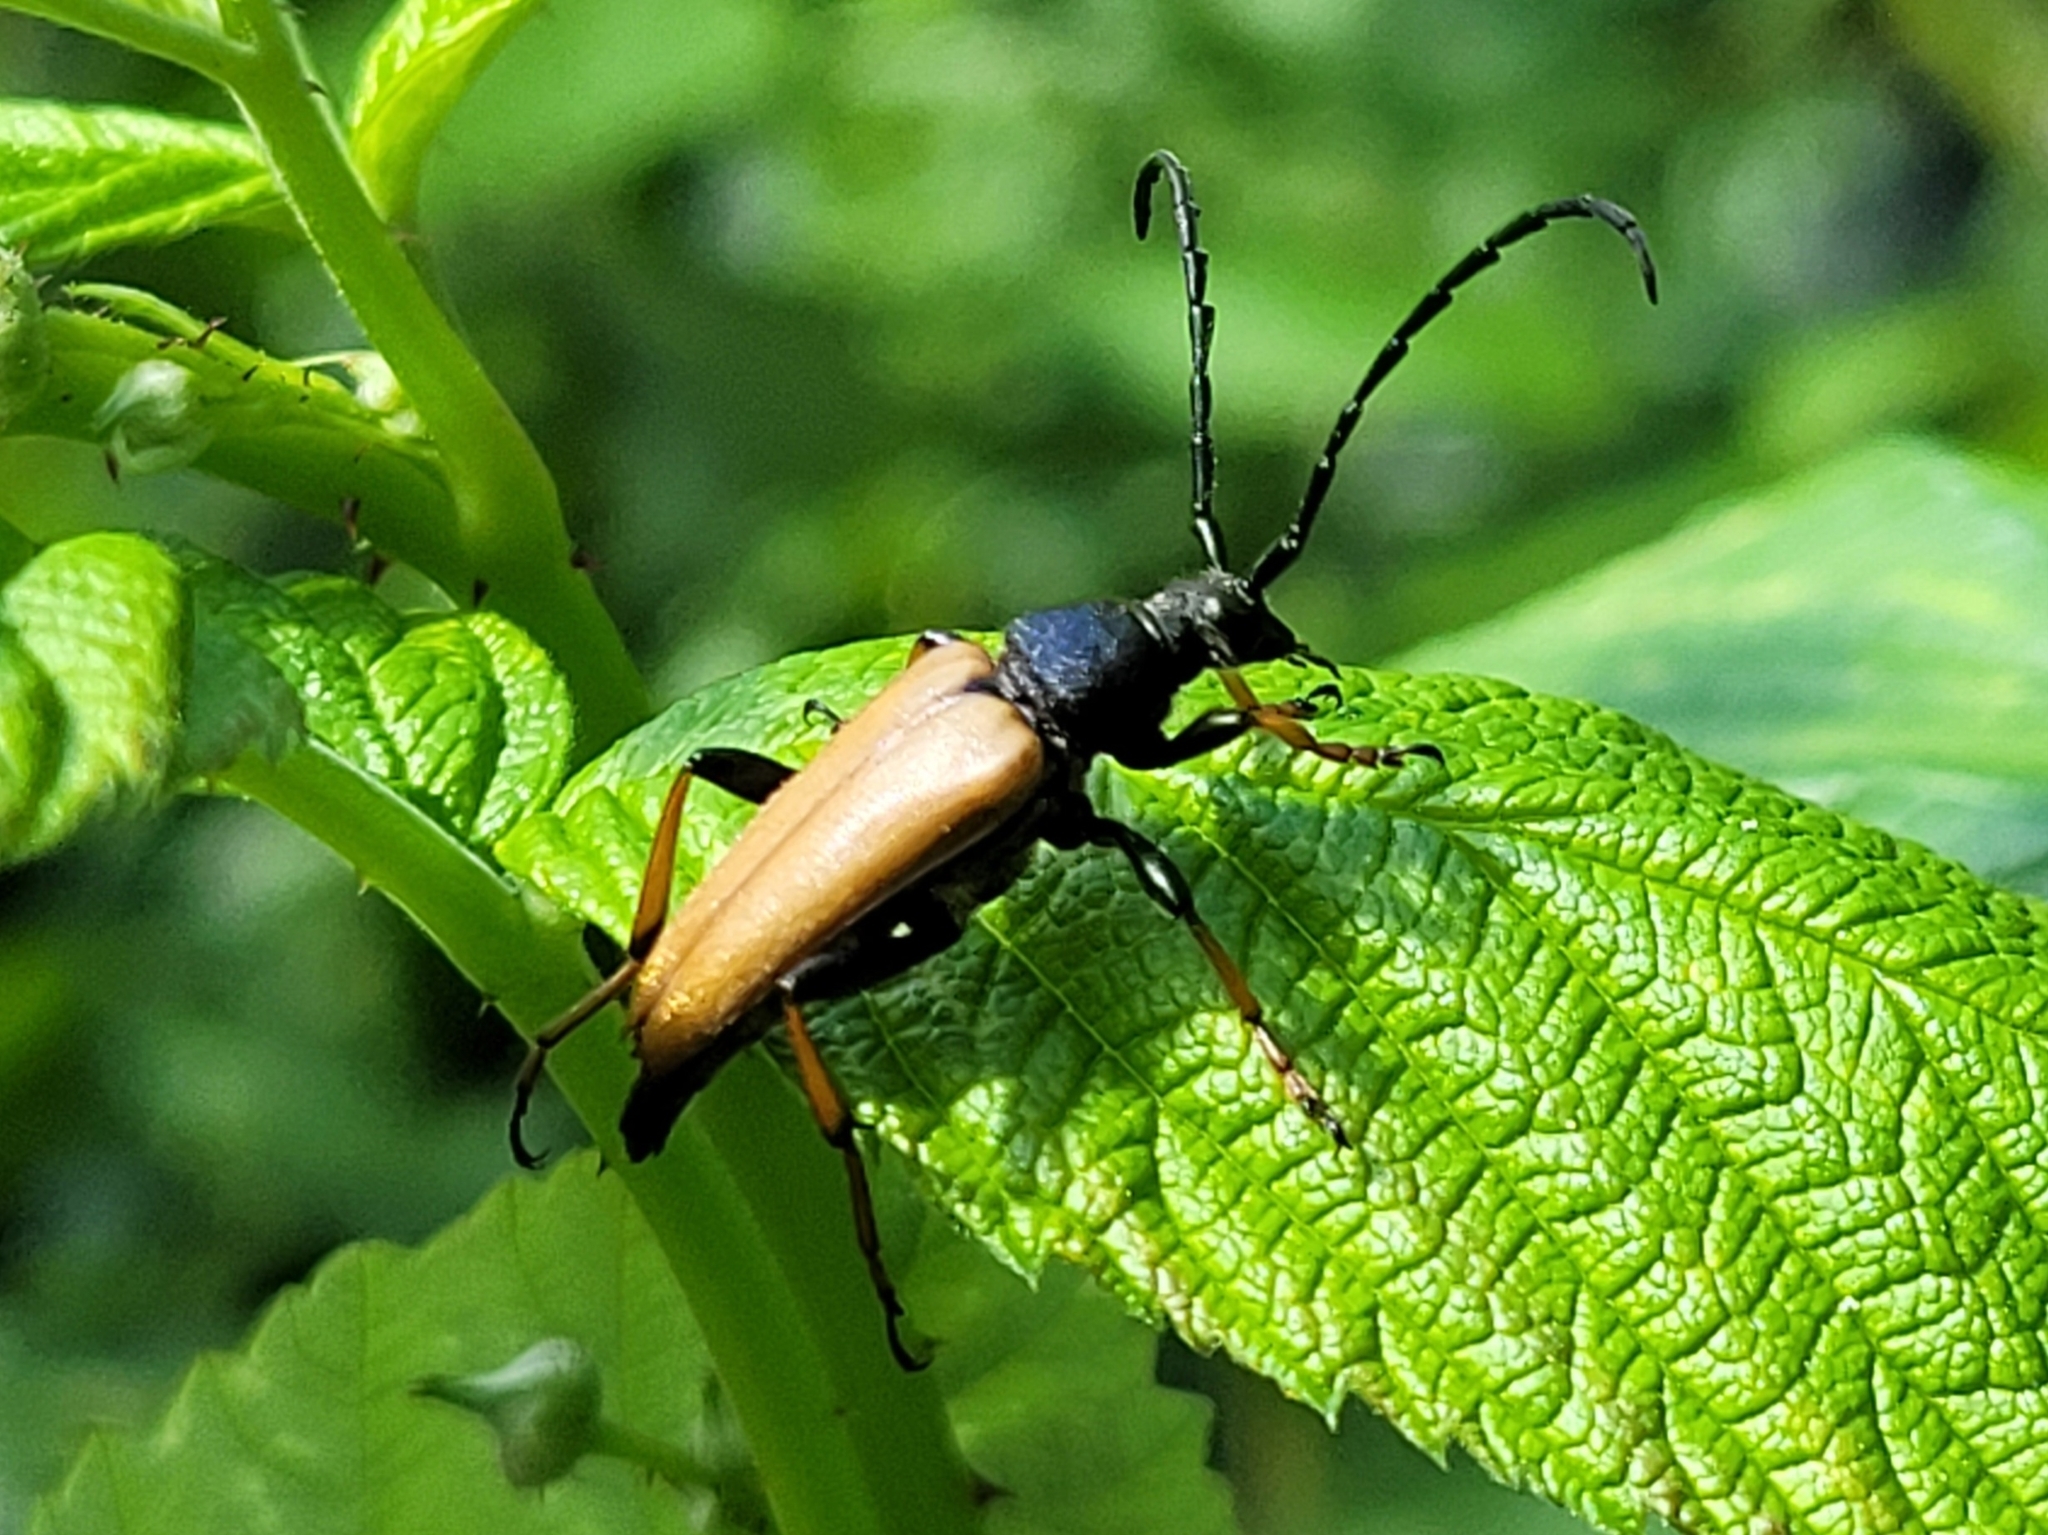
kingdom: Animalia
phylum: Arthropoda
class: Insecta
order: Coleoptera
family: Cerambycidae
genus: Stictoleptura
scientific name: Stictoleptura rubra
